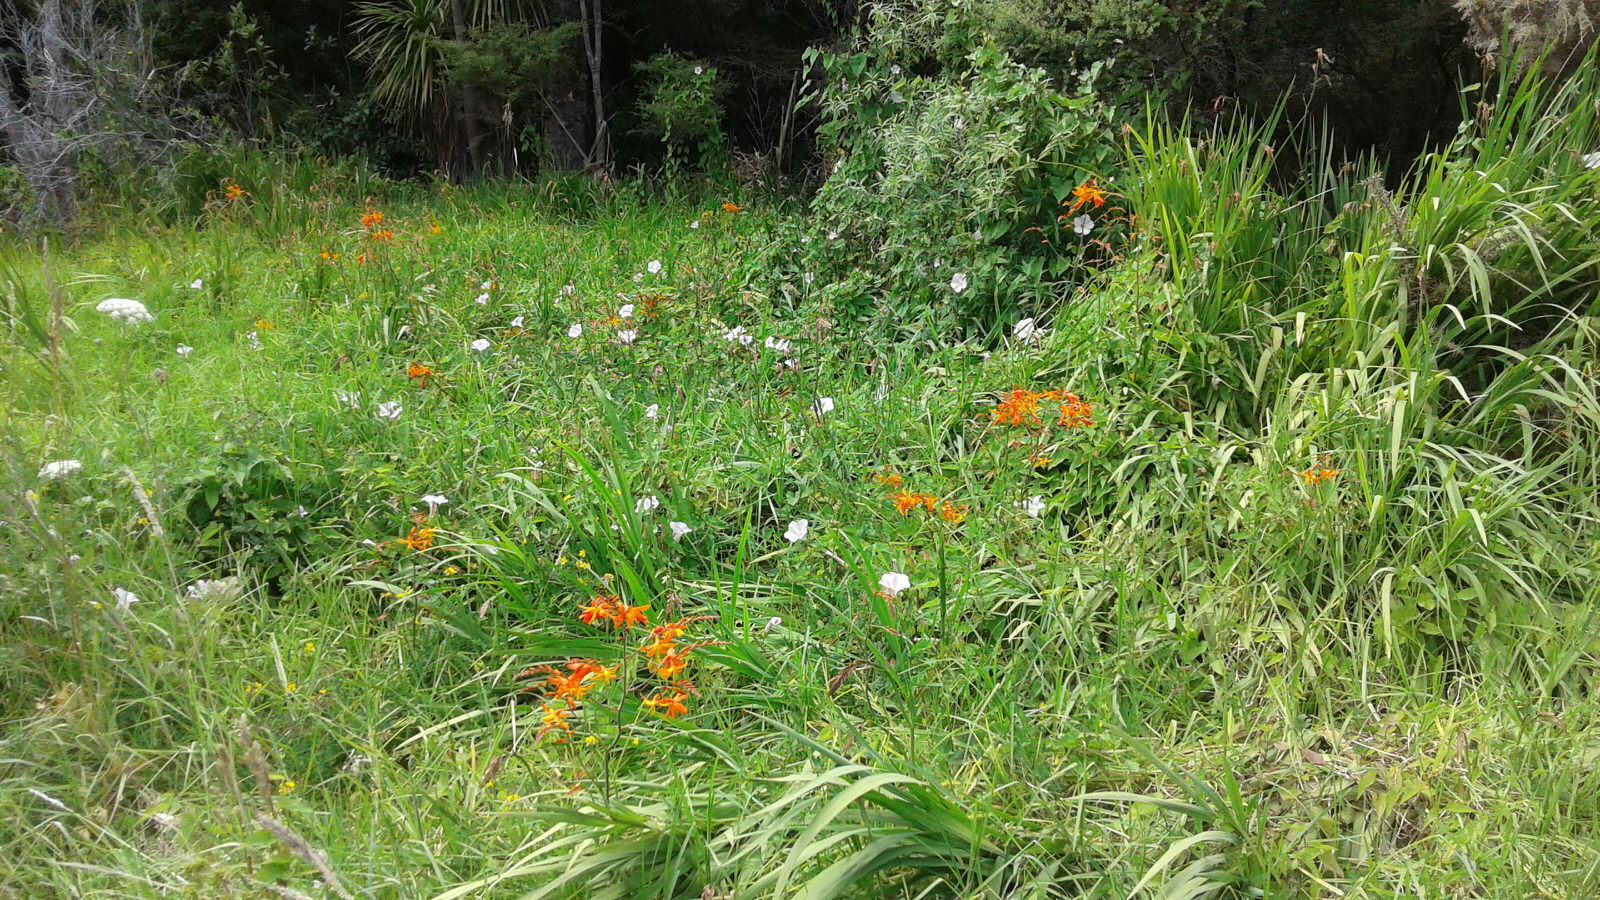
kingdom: Plantae
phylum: Tracheophyta
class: Liliopsida
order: Asparagales
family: Iridaceae
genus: Crocosmia
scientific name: Crocosmia crocosmiiflora
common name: Montbretia
